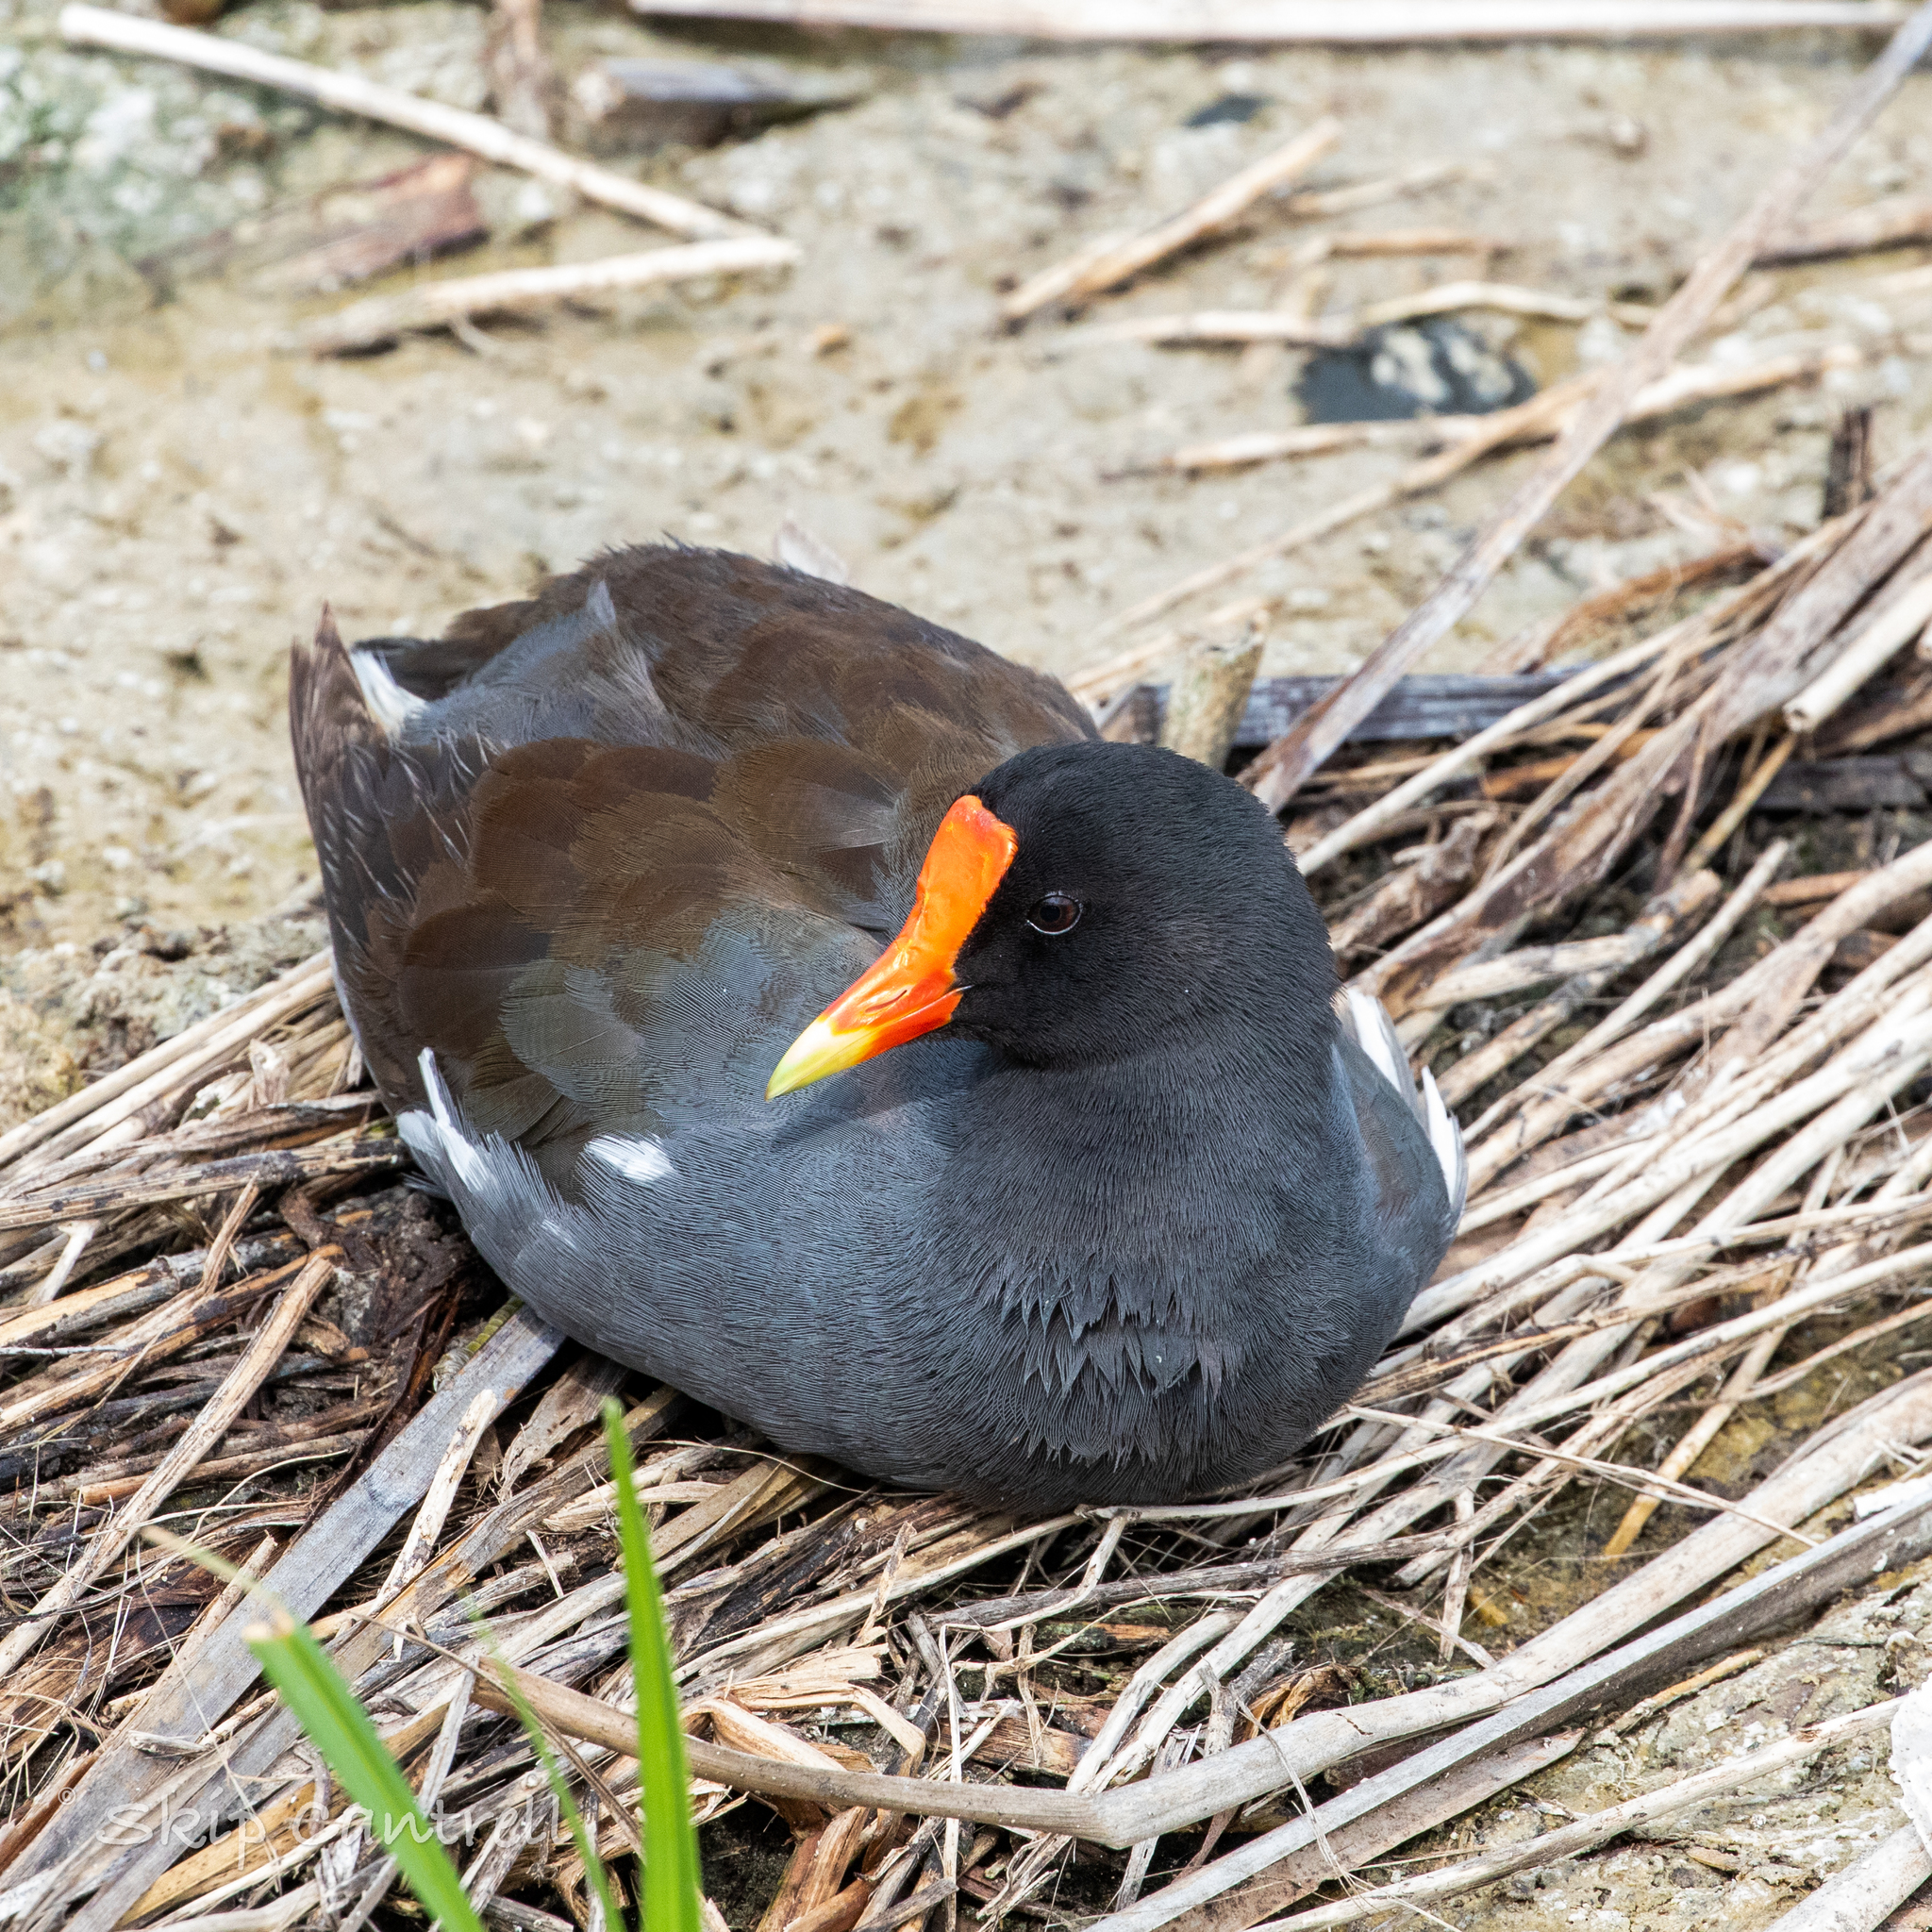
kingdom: Animalia
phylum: Chordata
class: Aves
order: Gruiformes
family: Rallidae
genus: Gallinula
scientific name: Gallinula chloropus
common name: Common moorhen
